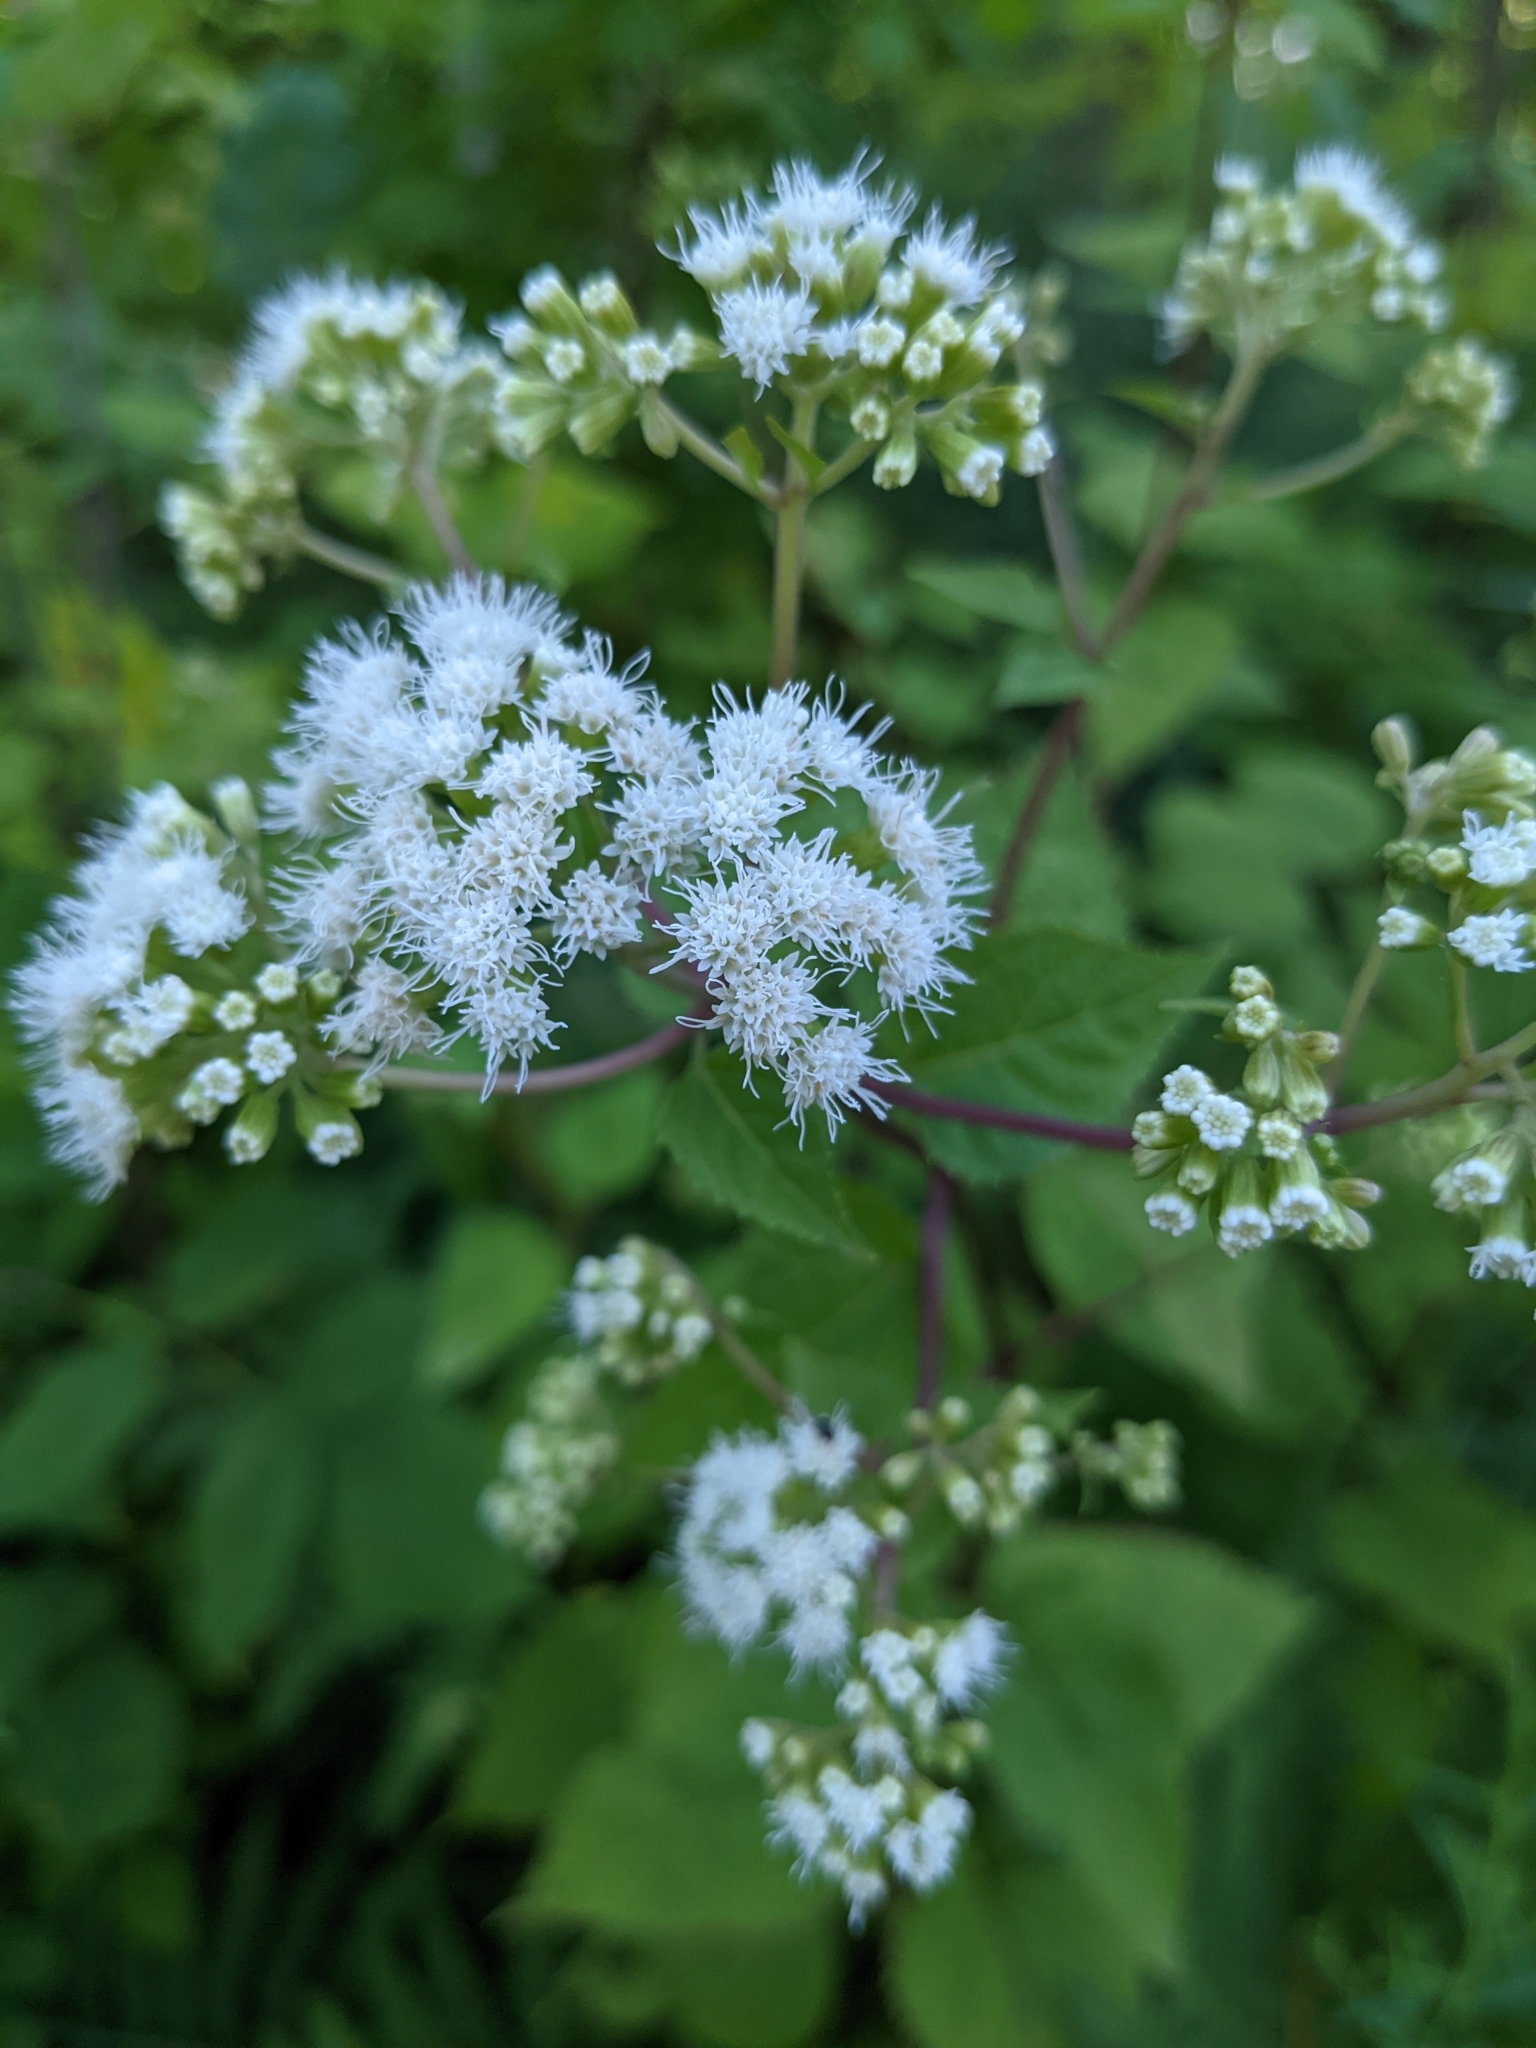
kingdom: Plantae
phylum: Tracheophyta
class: Magnoliopsida
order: Asterales
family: Asteraceae
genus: Ageratina
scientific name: Ageratina altissima
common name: White snakeroot
